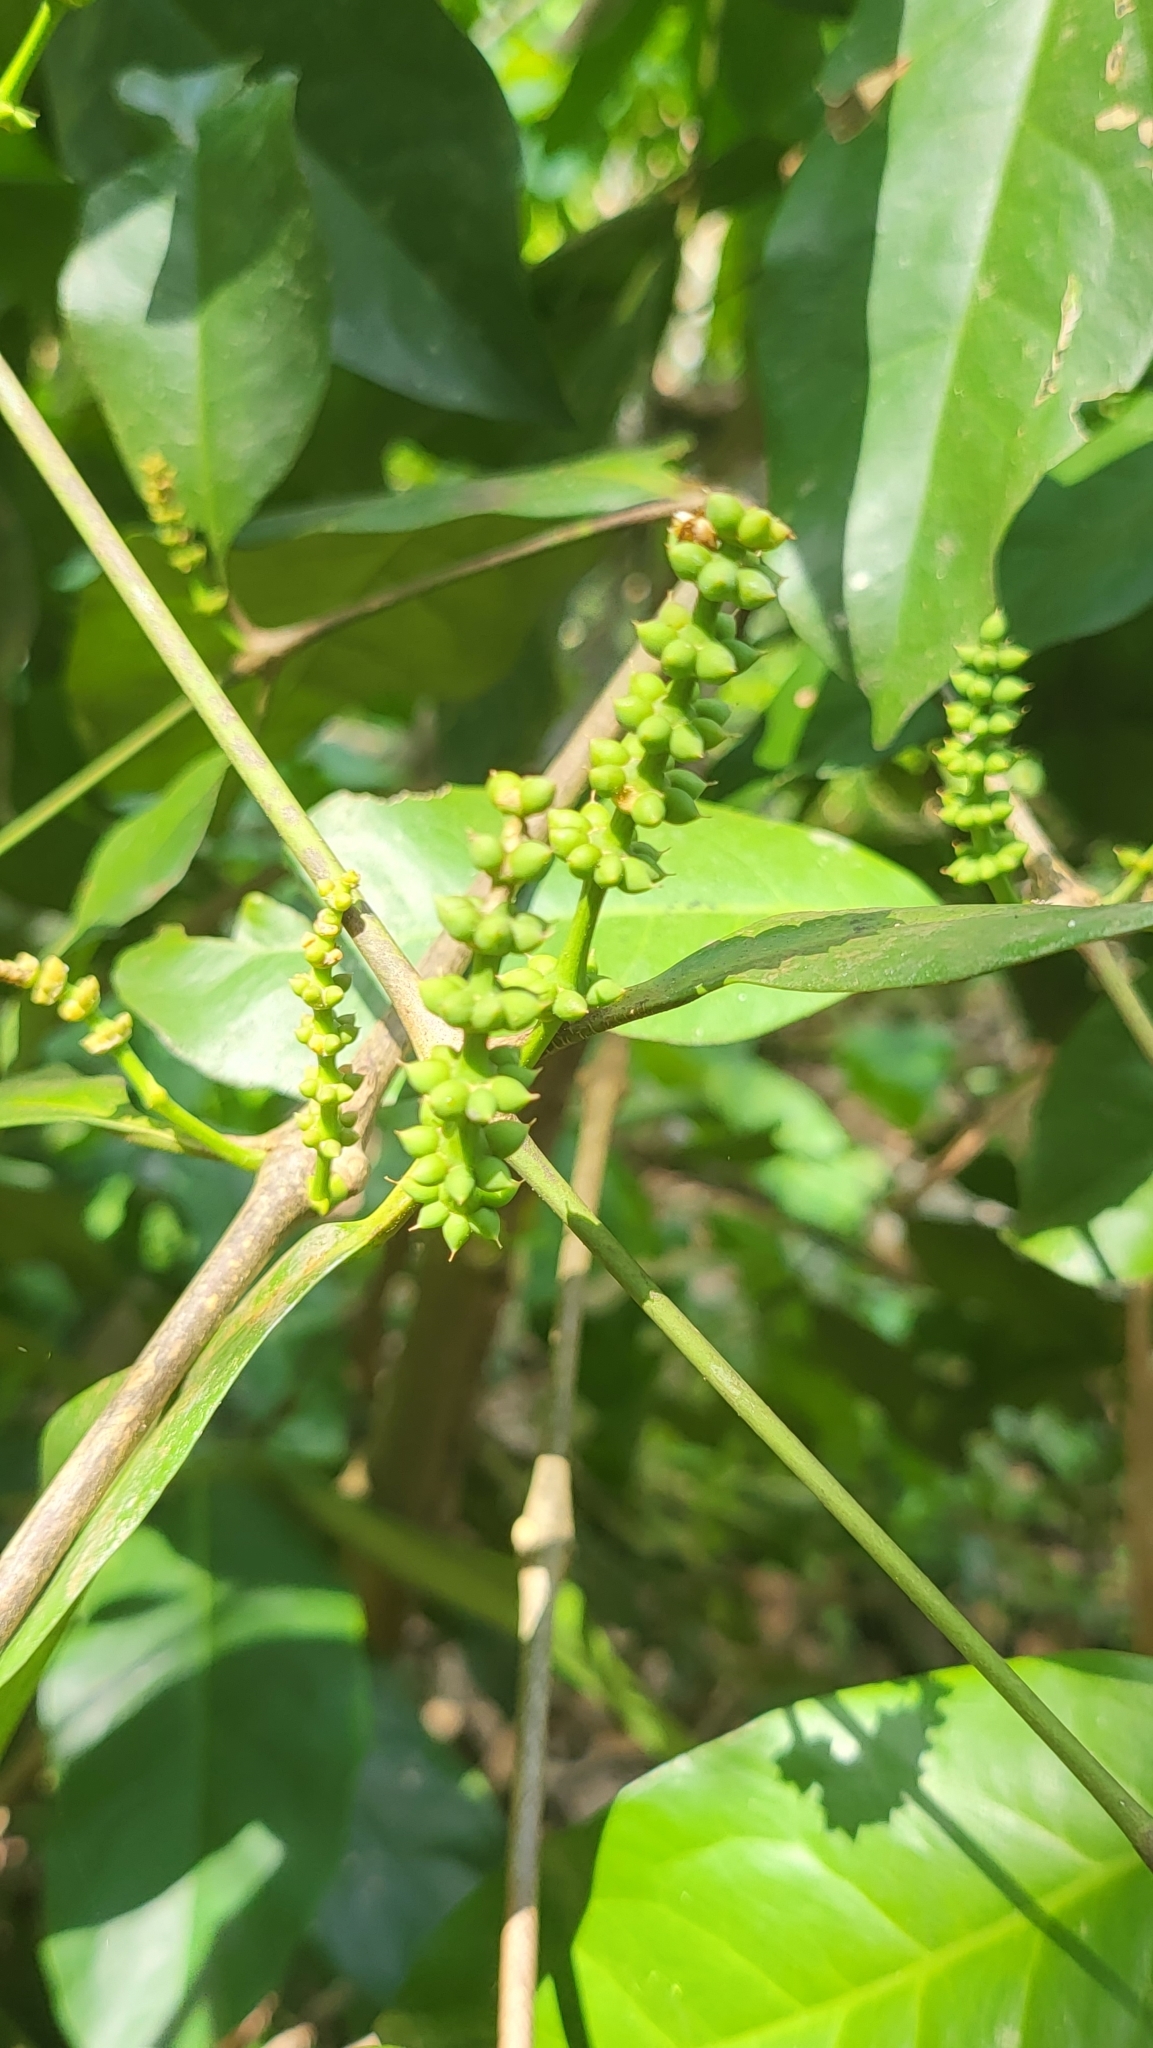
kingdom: Plantae
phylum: Tracheophyta
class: Gnetopsida
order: Gnetales
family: Gnetaceae
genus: Gnetum
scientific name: Gnetum gnemon
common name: Spanish joint-fir
